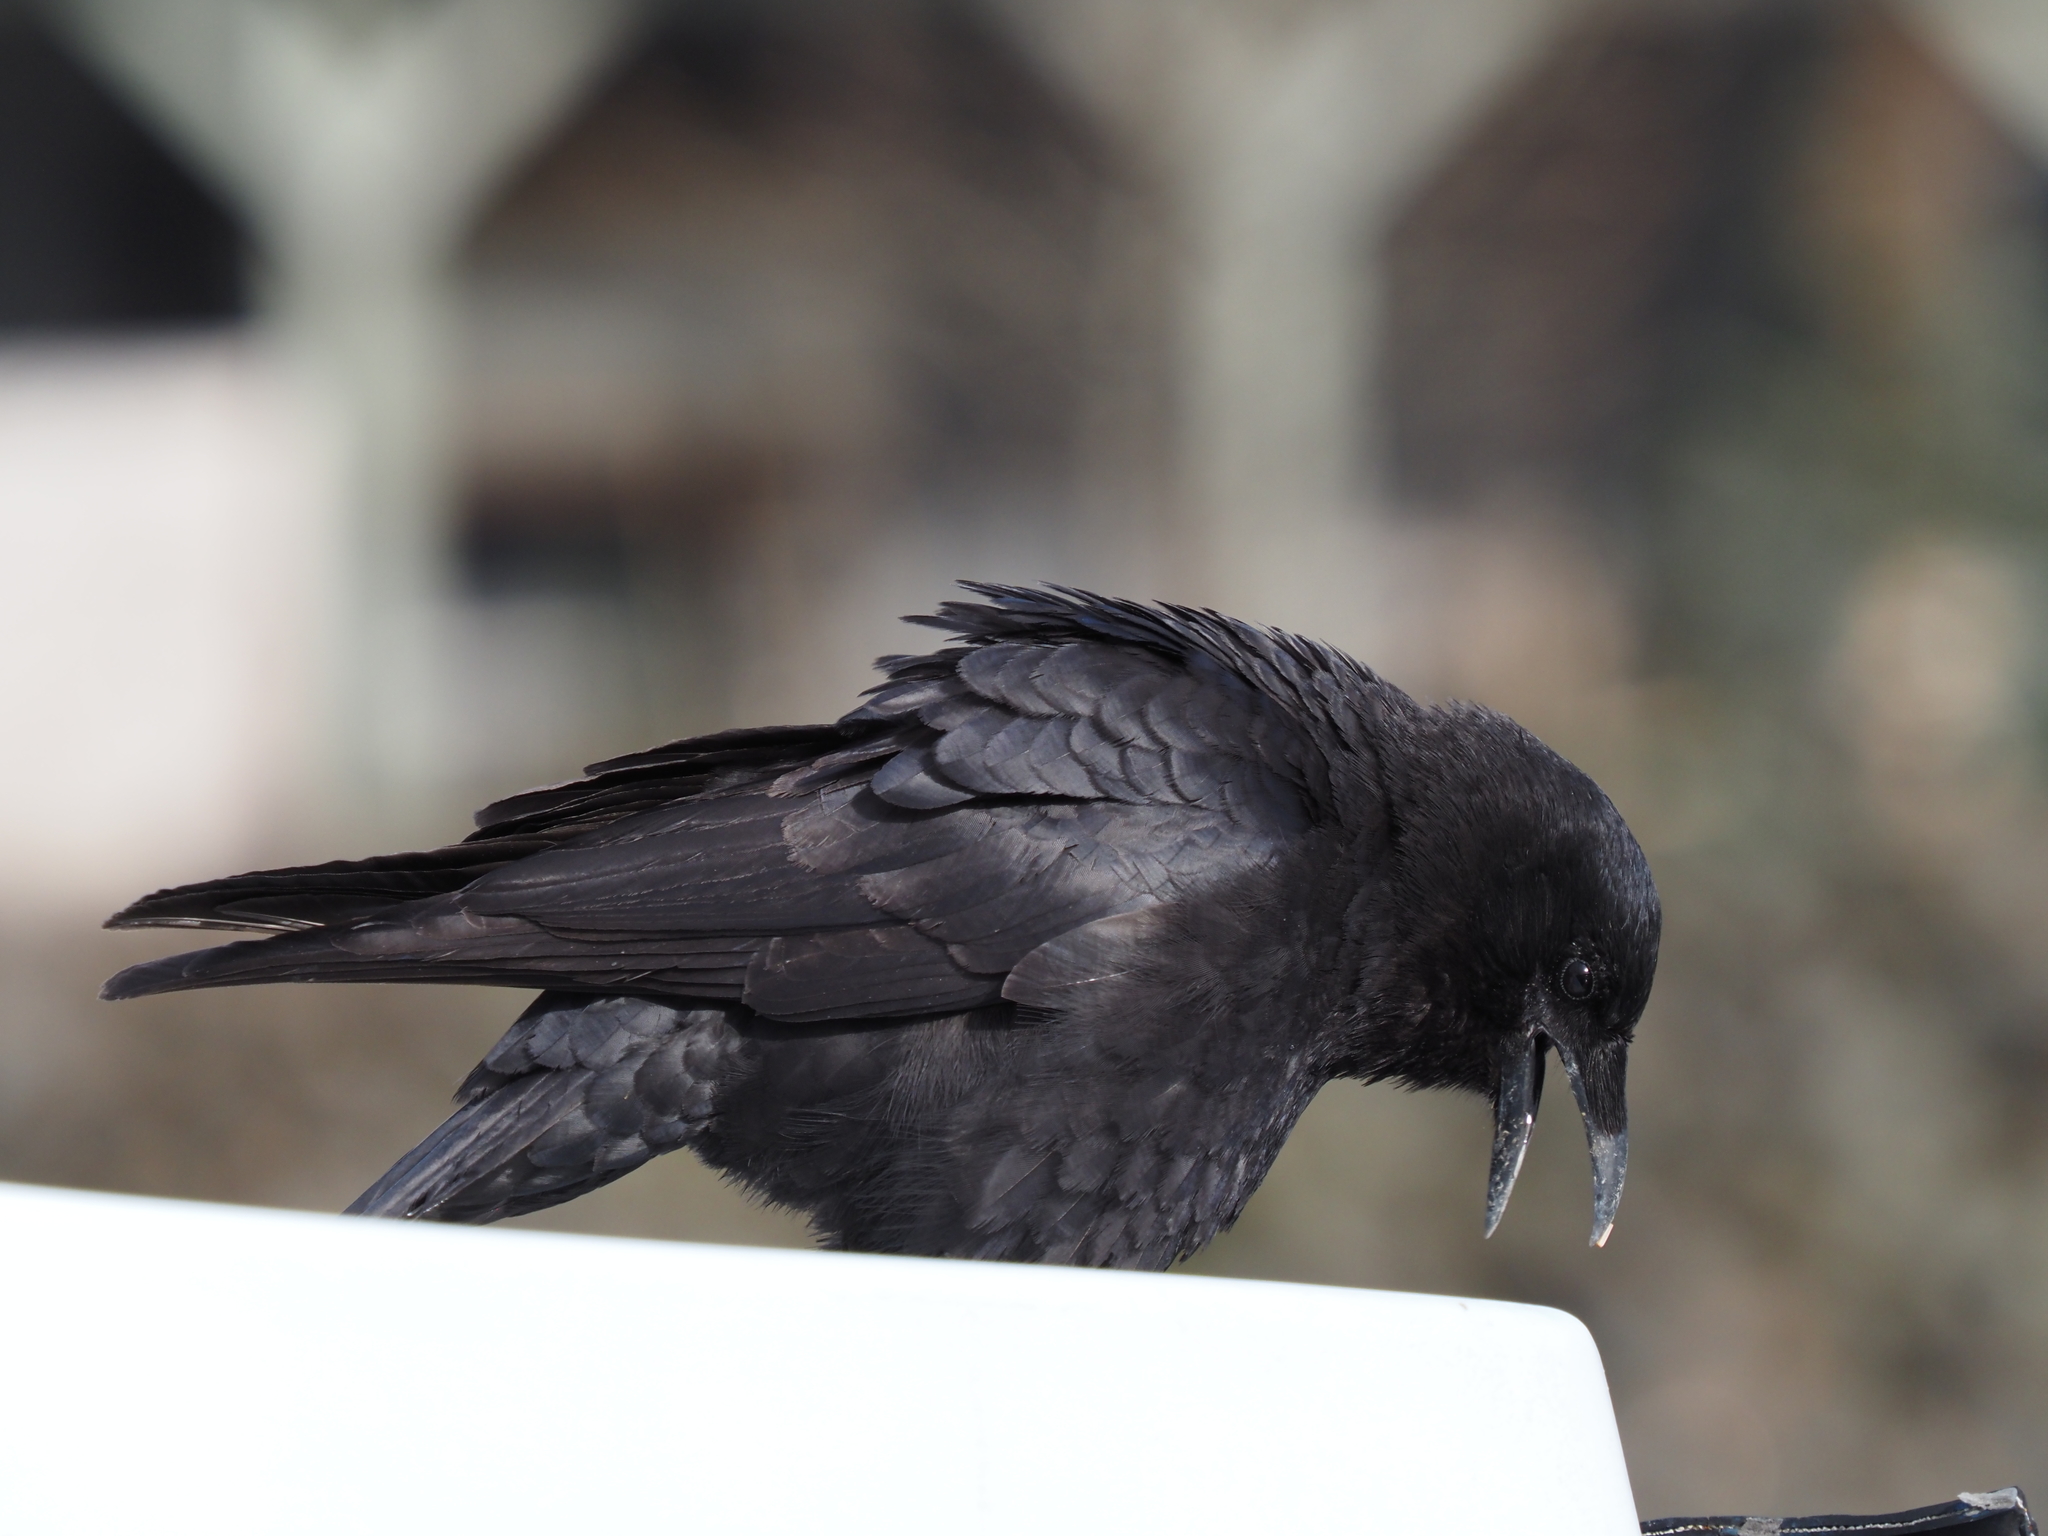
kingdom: Animalia
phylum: Chordata
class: Aves
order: Passeriformes
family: Corvidae
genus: Corvus
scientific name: Corvus brachyrhynchos
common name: American crow
